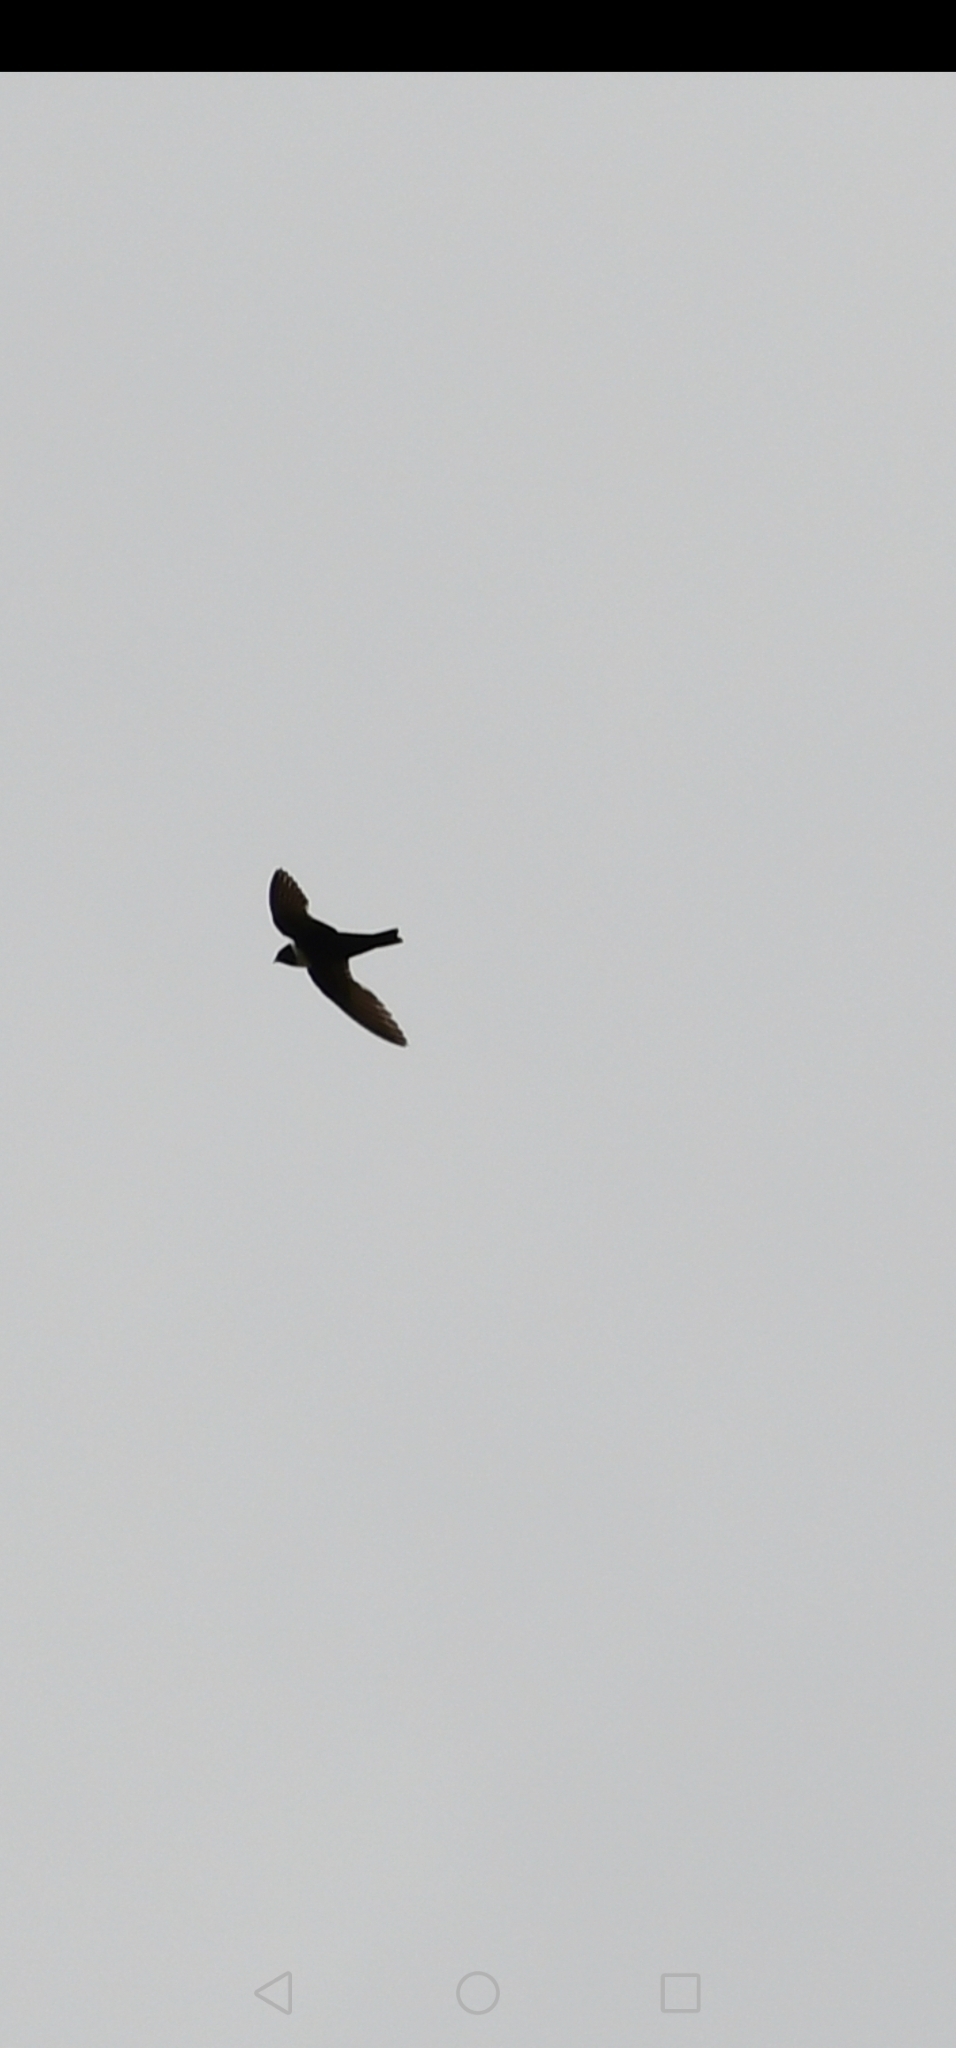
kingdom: Animalia
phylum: Chordata
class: Aves
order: Apodiformes
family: Apodidae
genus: Streptoprocne
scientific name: Streptoprocne zonaris
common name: White-collared swift
